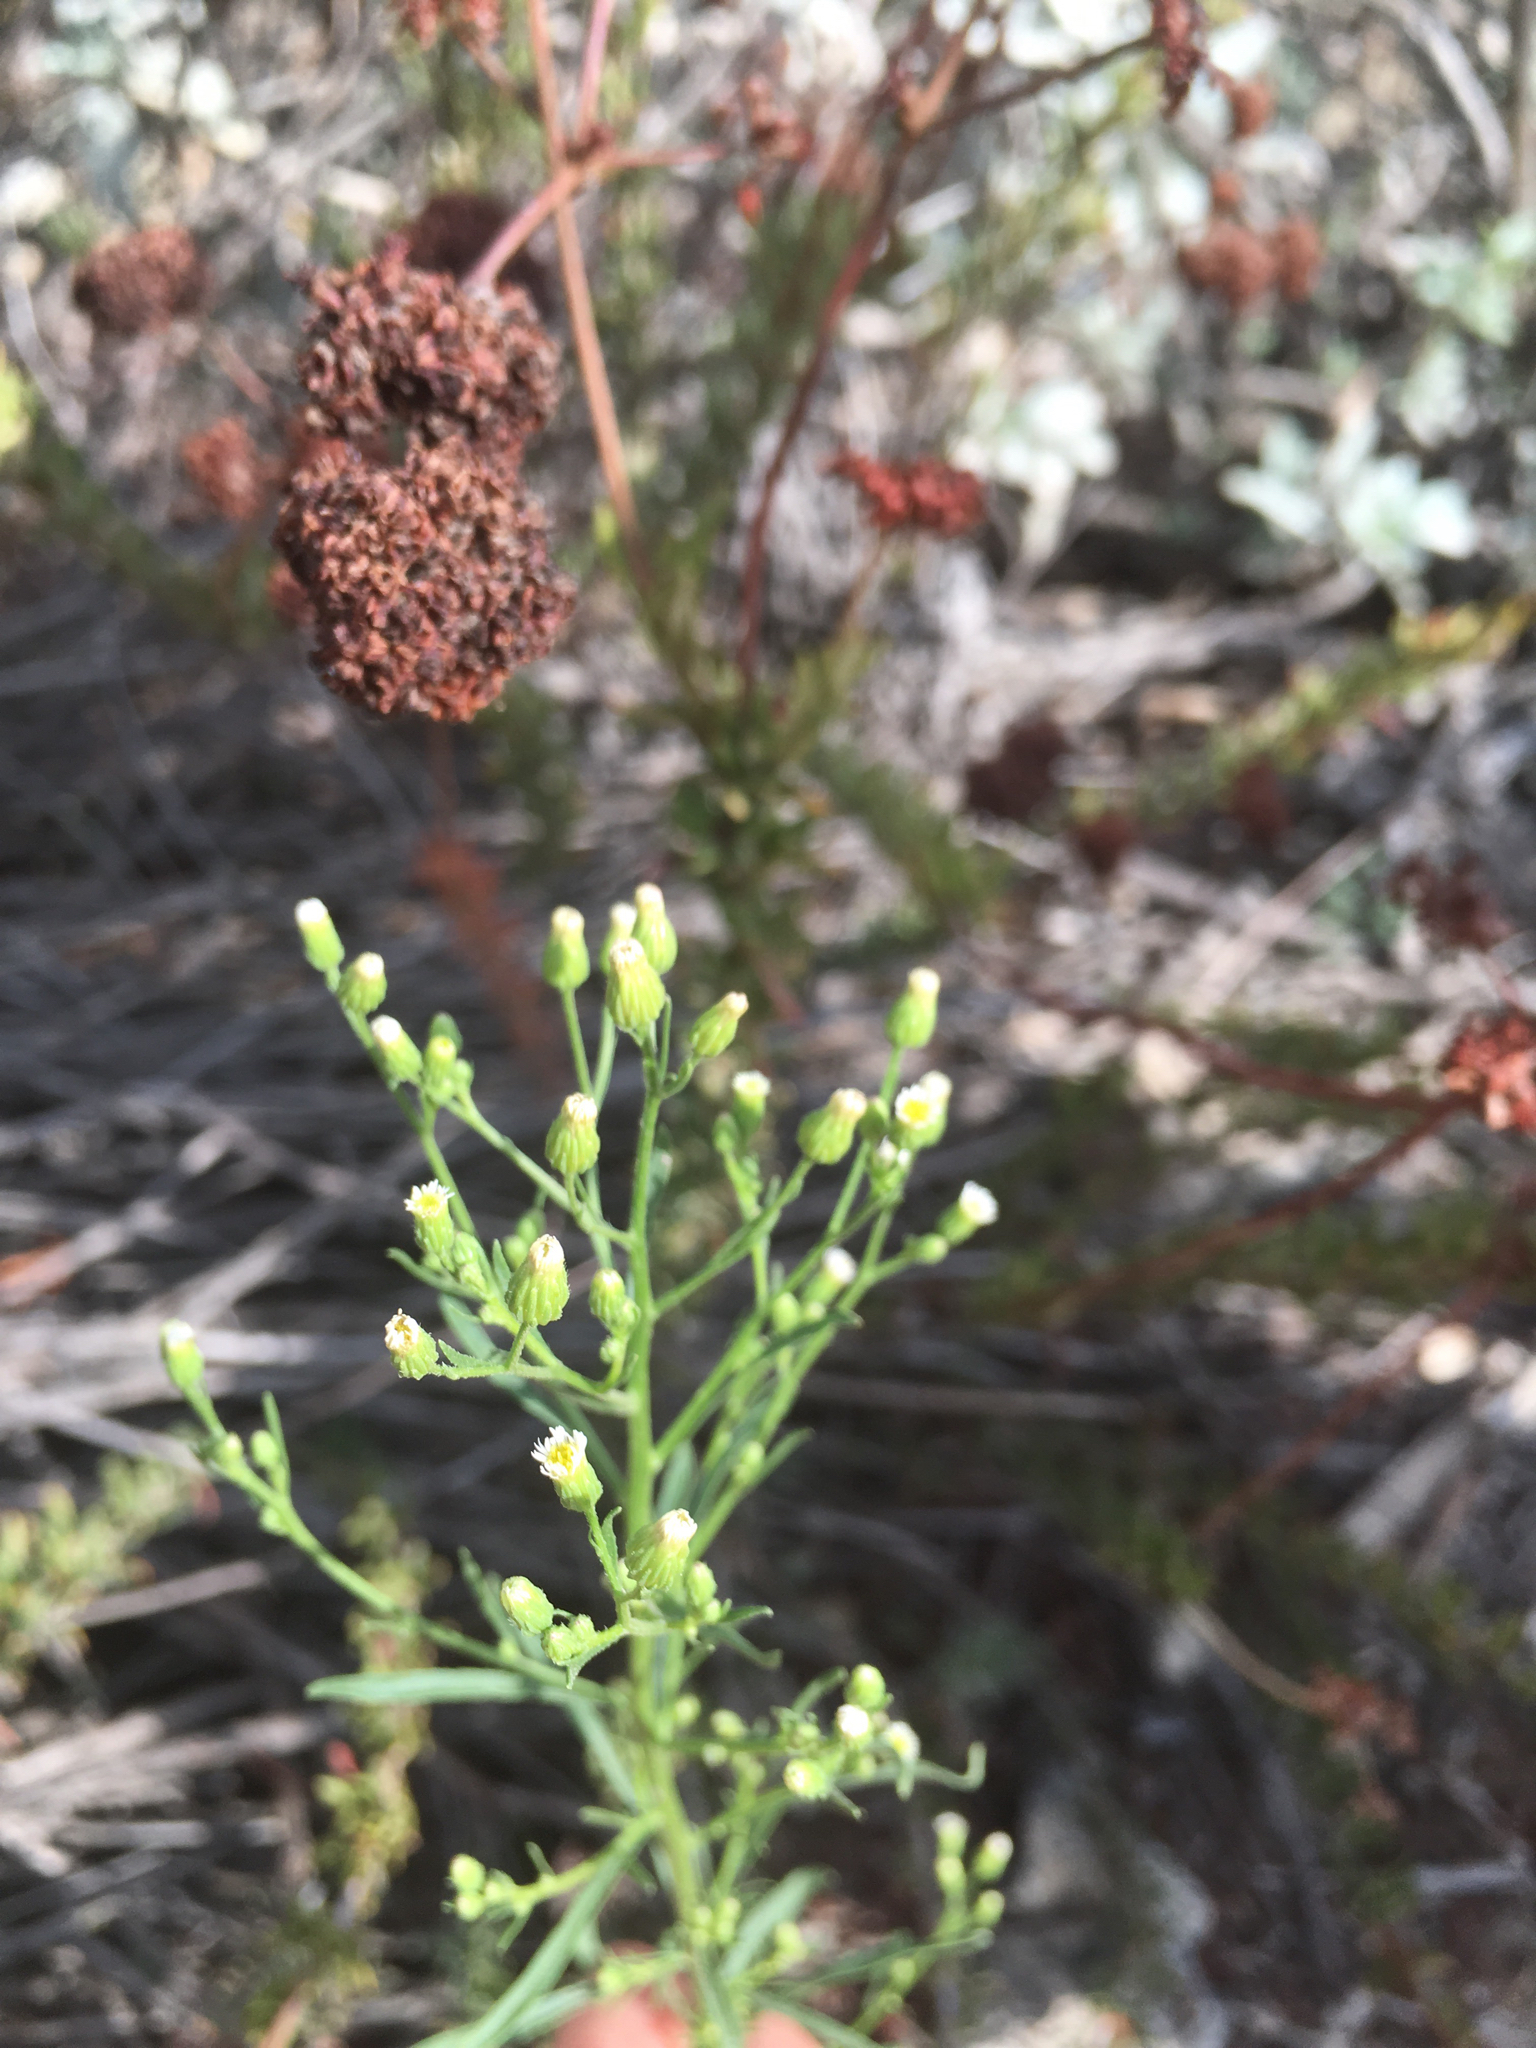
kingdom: Plantae
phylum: Tracheophyta
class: Magnoliopsida
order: Asterales
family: Asteraceae
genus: Erigeron
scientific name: Erigeron canadensis
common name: Canadian fleabane
